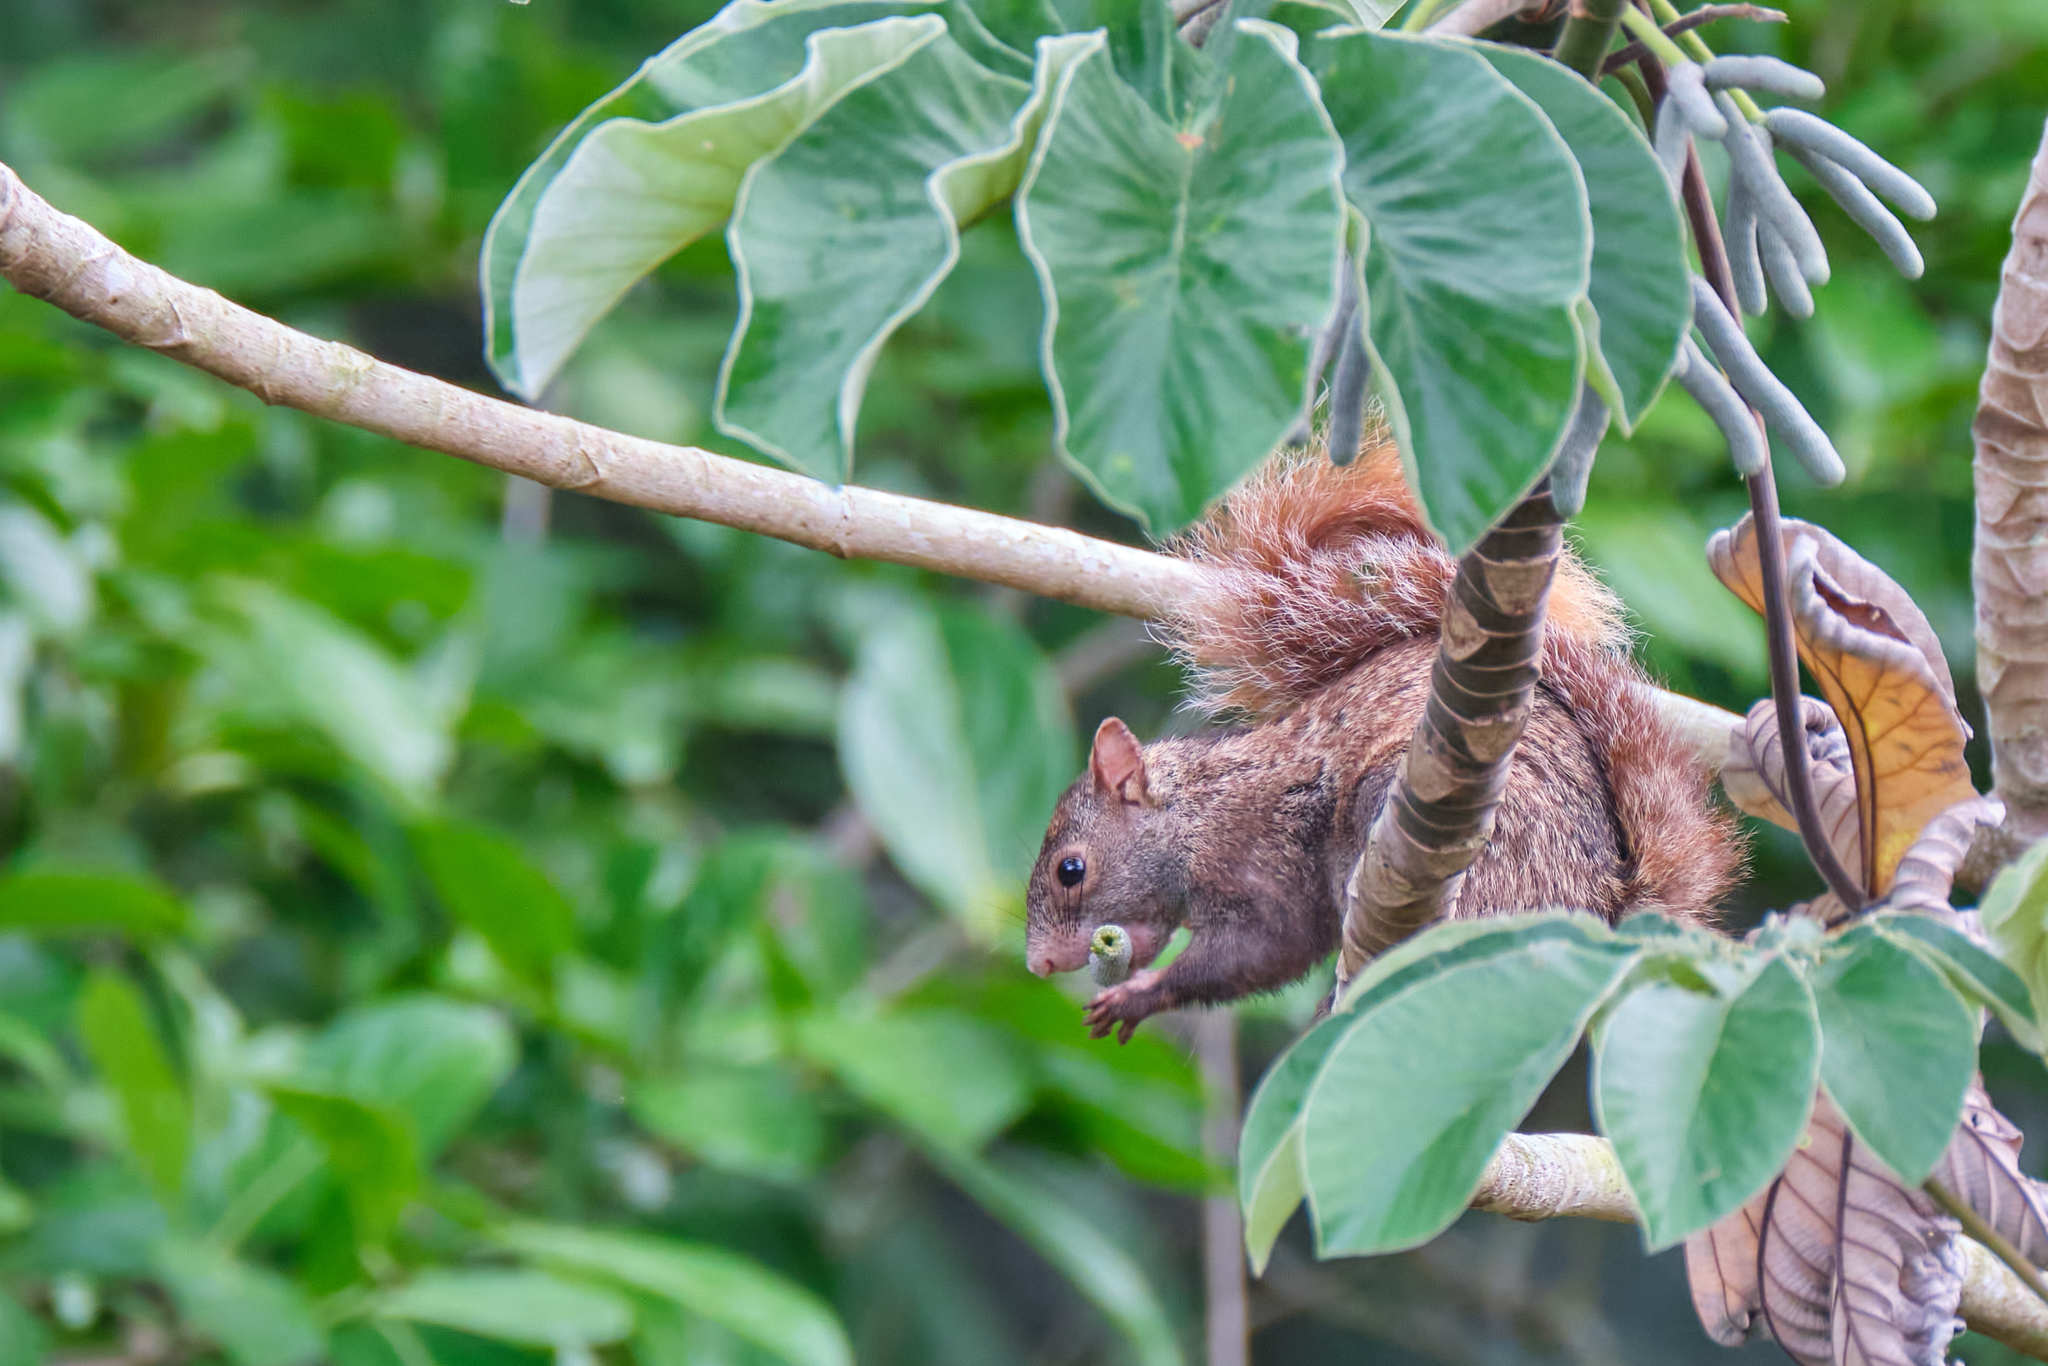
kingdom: Animalia
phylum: Chordata
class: Mammalia
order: Rodentia
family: Sciuridae
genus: Sciurus
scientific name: Sciurus deppei
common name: Deppe's squirrel
